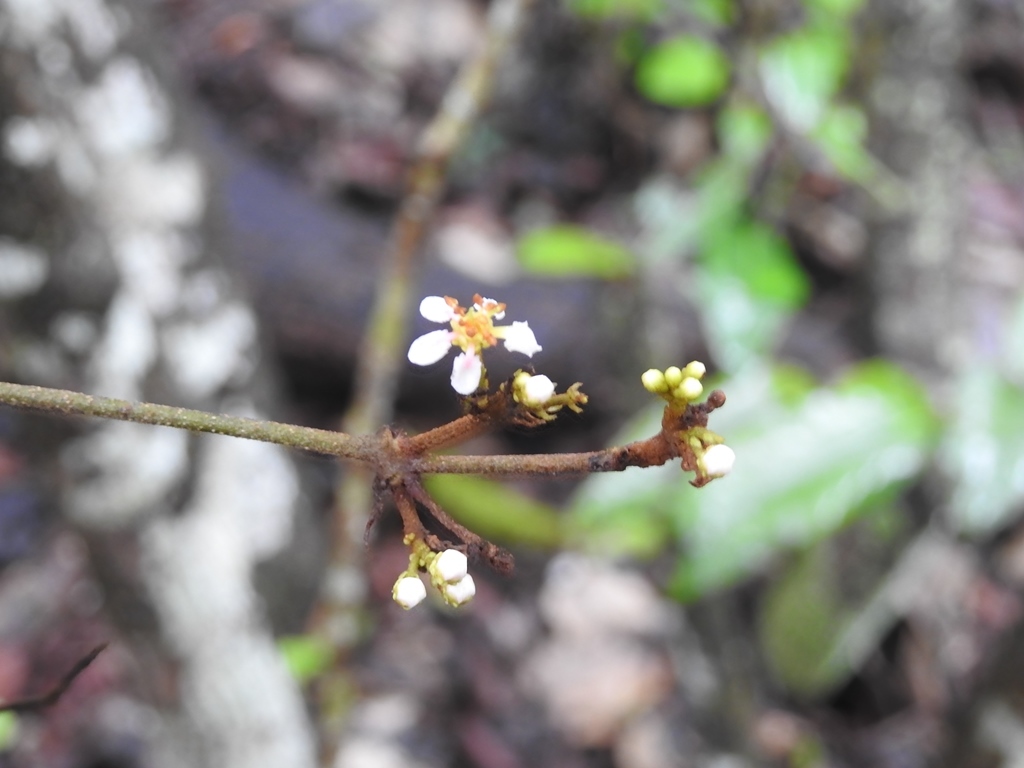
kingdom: Plantae
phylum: Tracheophyta
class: Magnoliopsida
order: Malpighiales
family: Malpighiaceae
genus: Heteropterys
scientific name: Heteropterys brachiata
